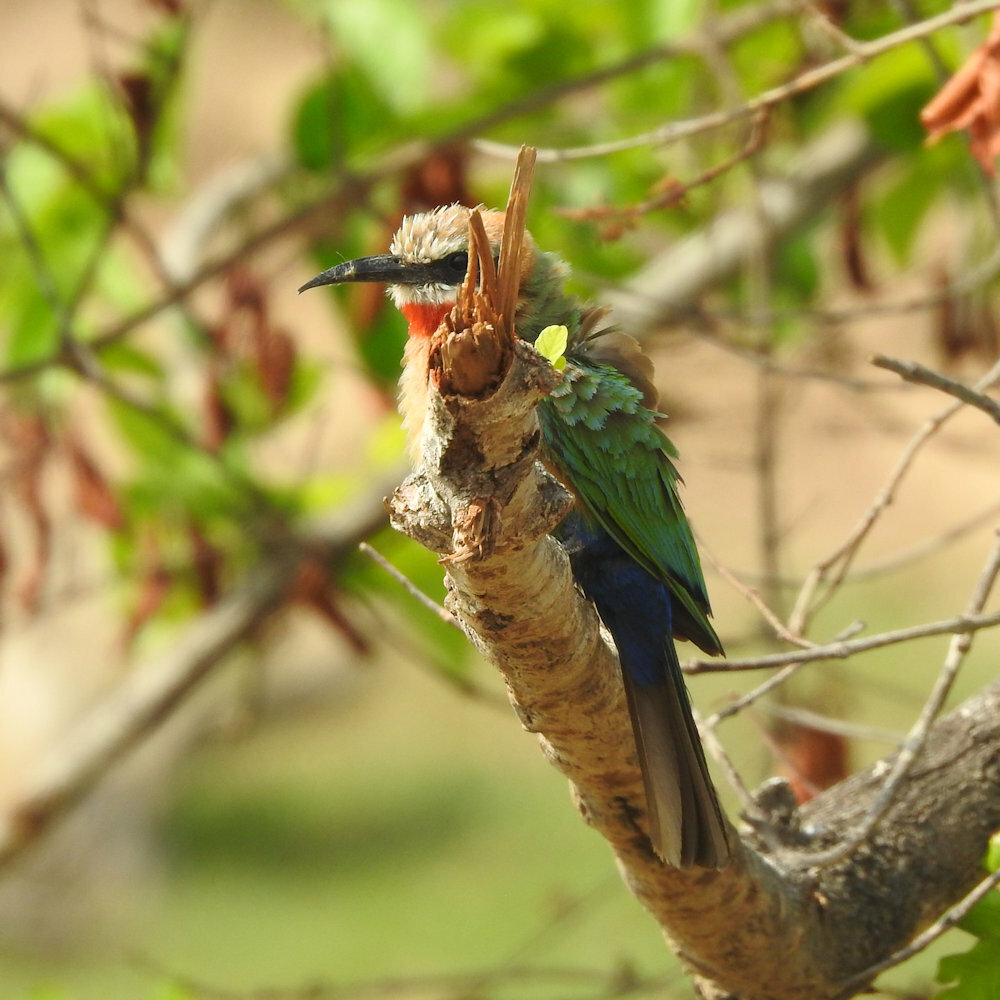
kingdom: Animalia
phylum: Chordata
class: Aves
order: Coraciiformes
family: Meropidae
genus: Merops
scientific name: Merops bullockoides
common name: White-fronted bee-eater
